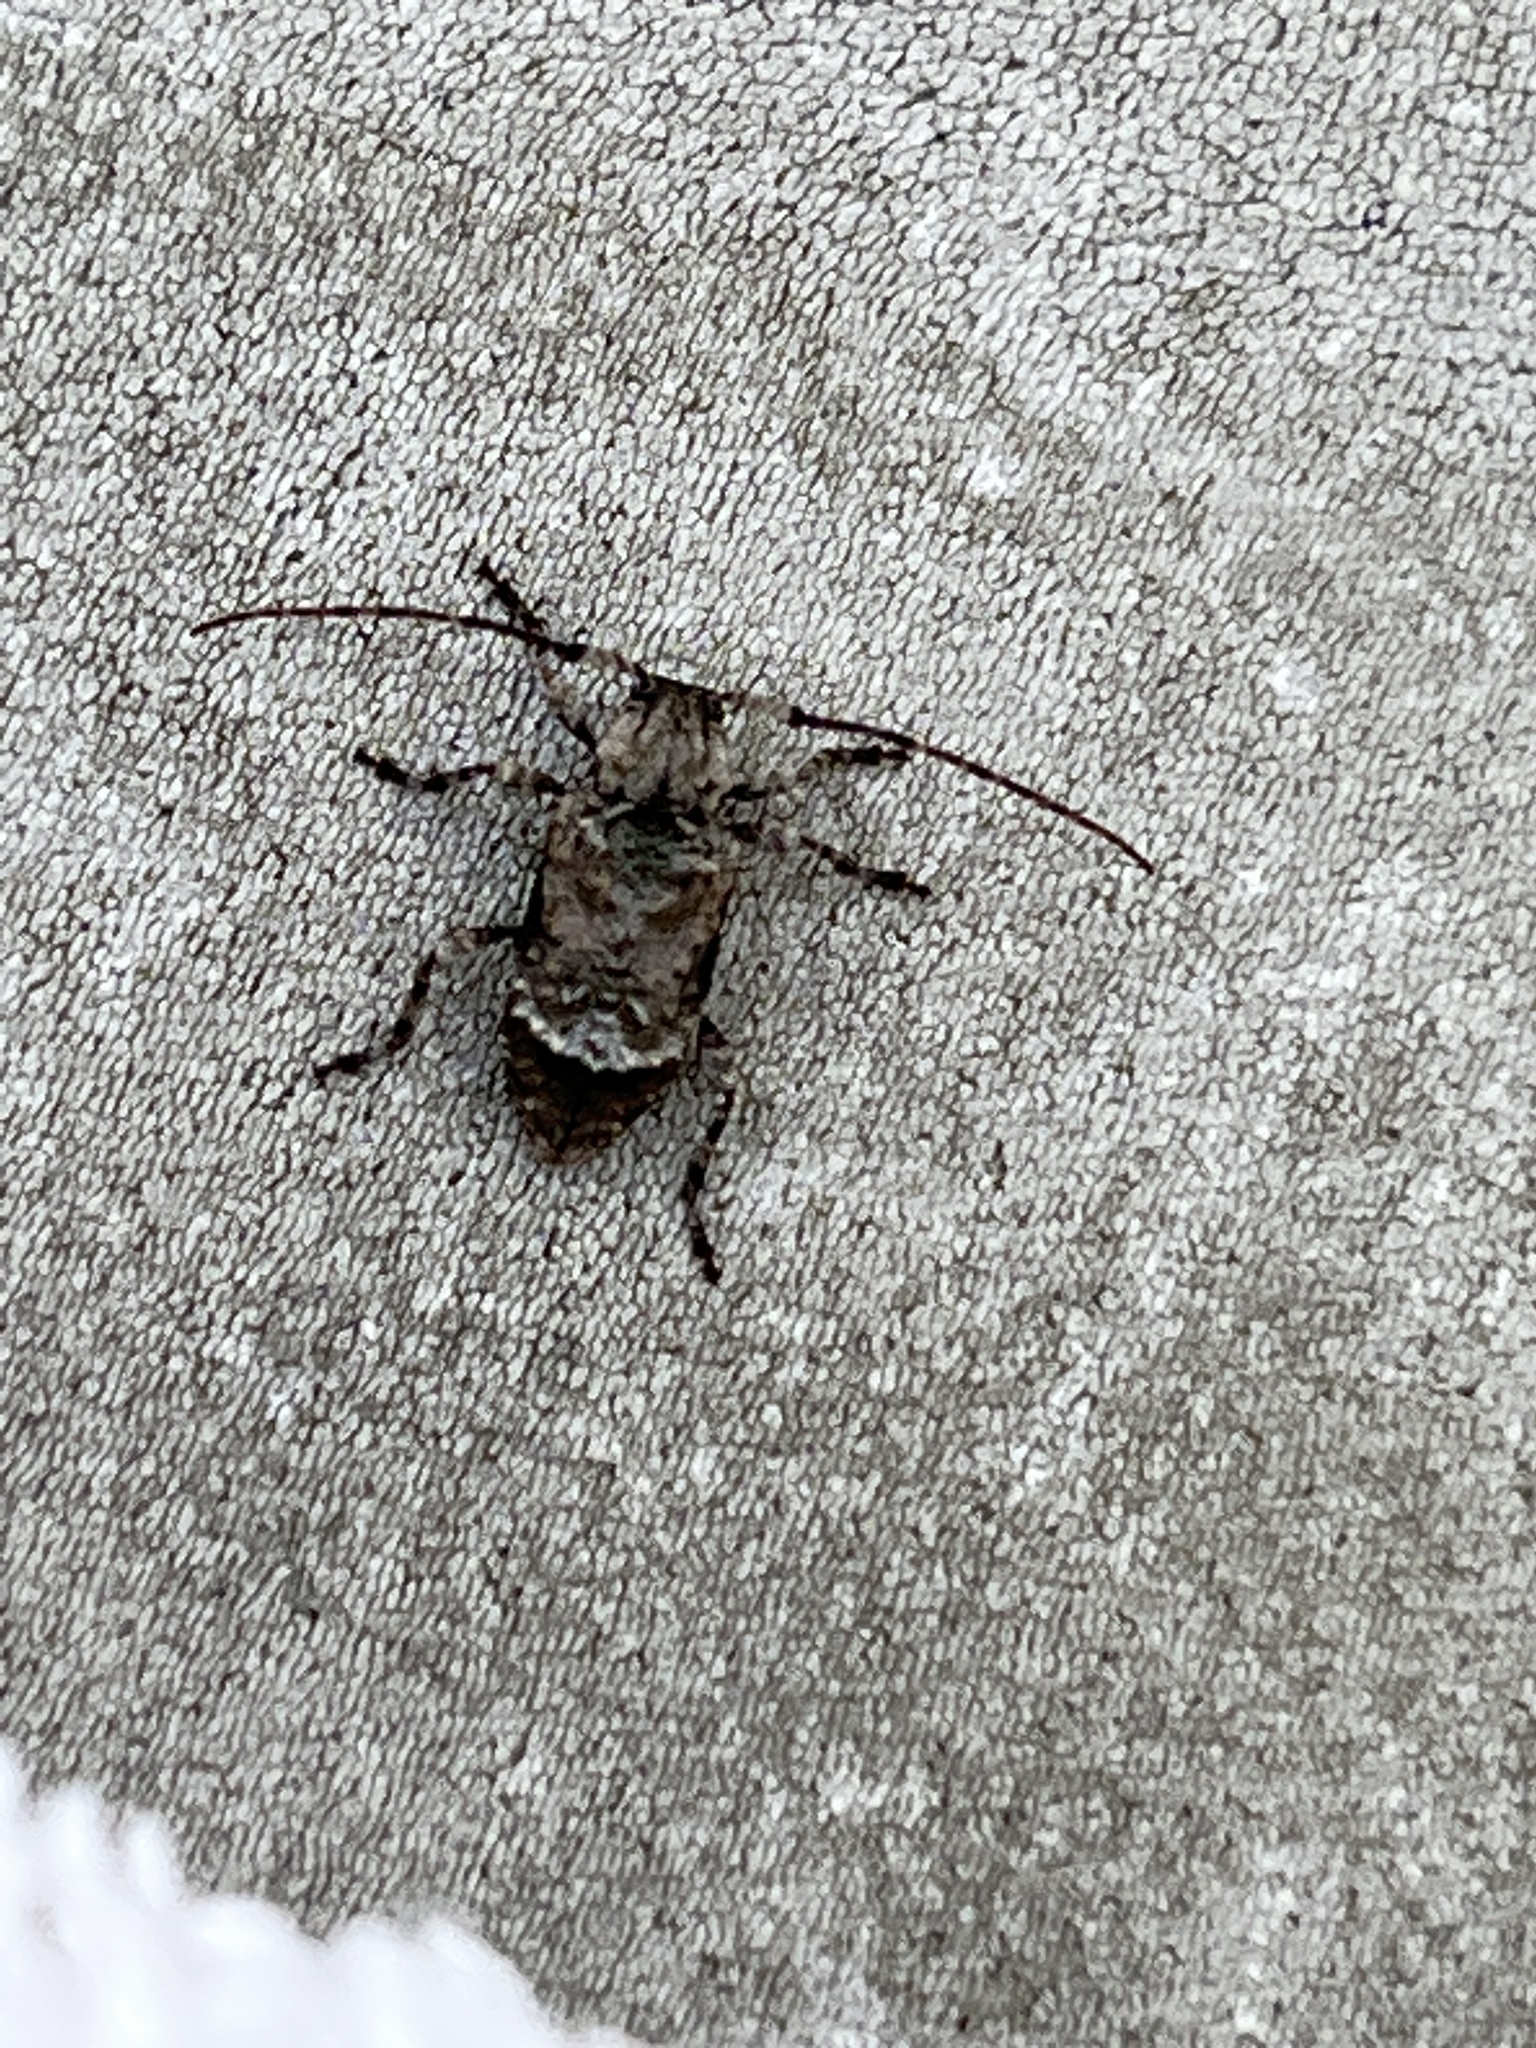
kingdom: Animalia
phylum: Arthropoda
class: Insecta
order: Coleoptera
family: Cerambycidae
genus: Leptostylus
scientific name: Leptostylus transversus
